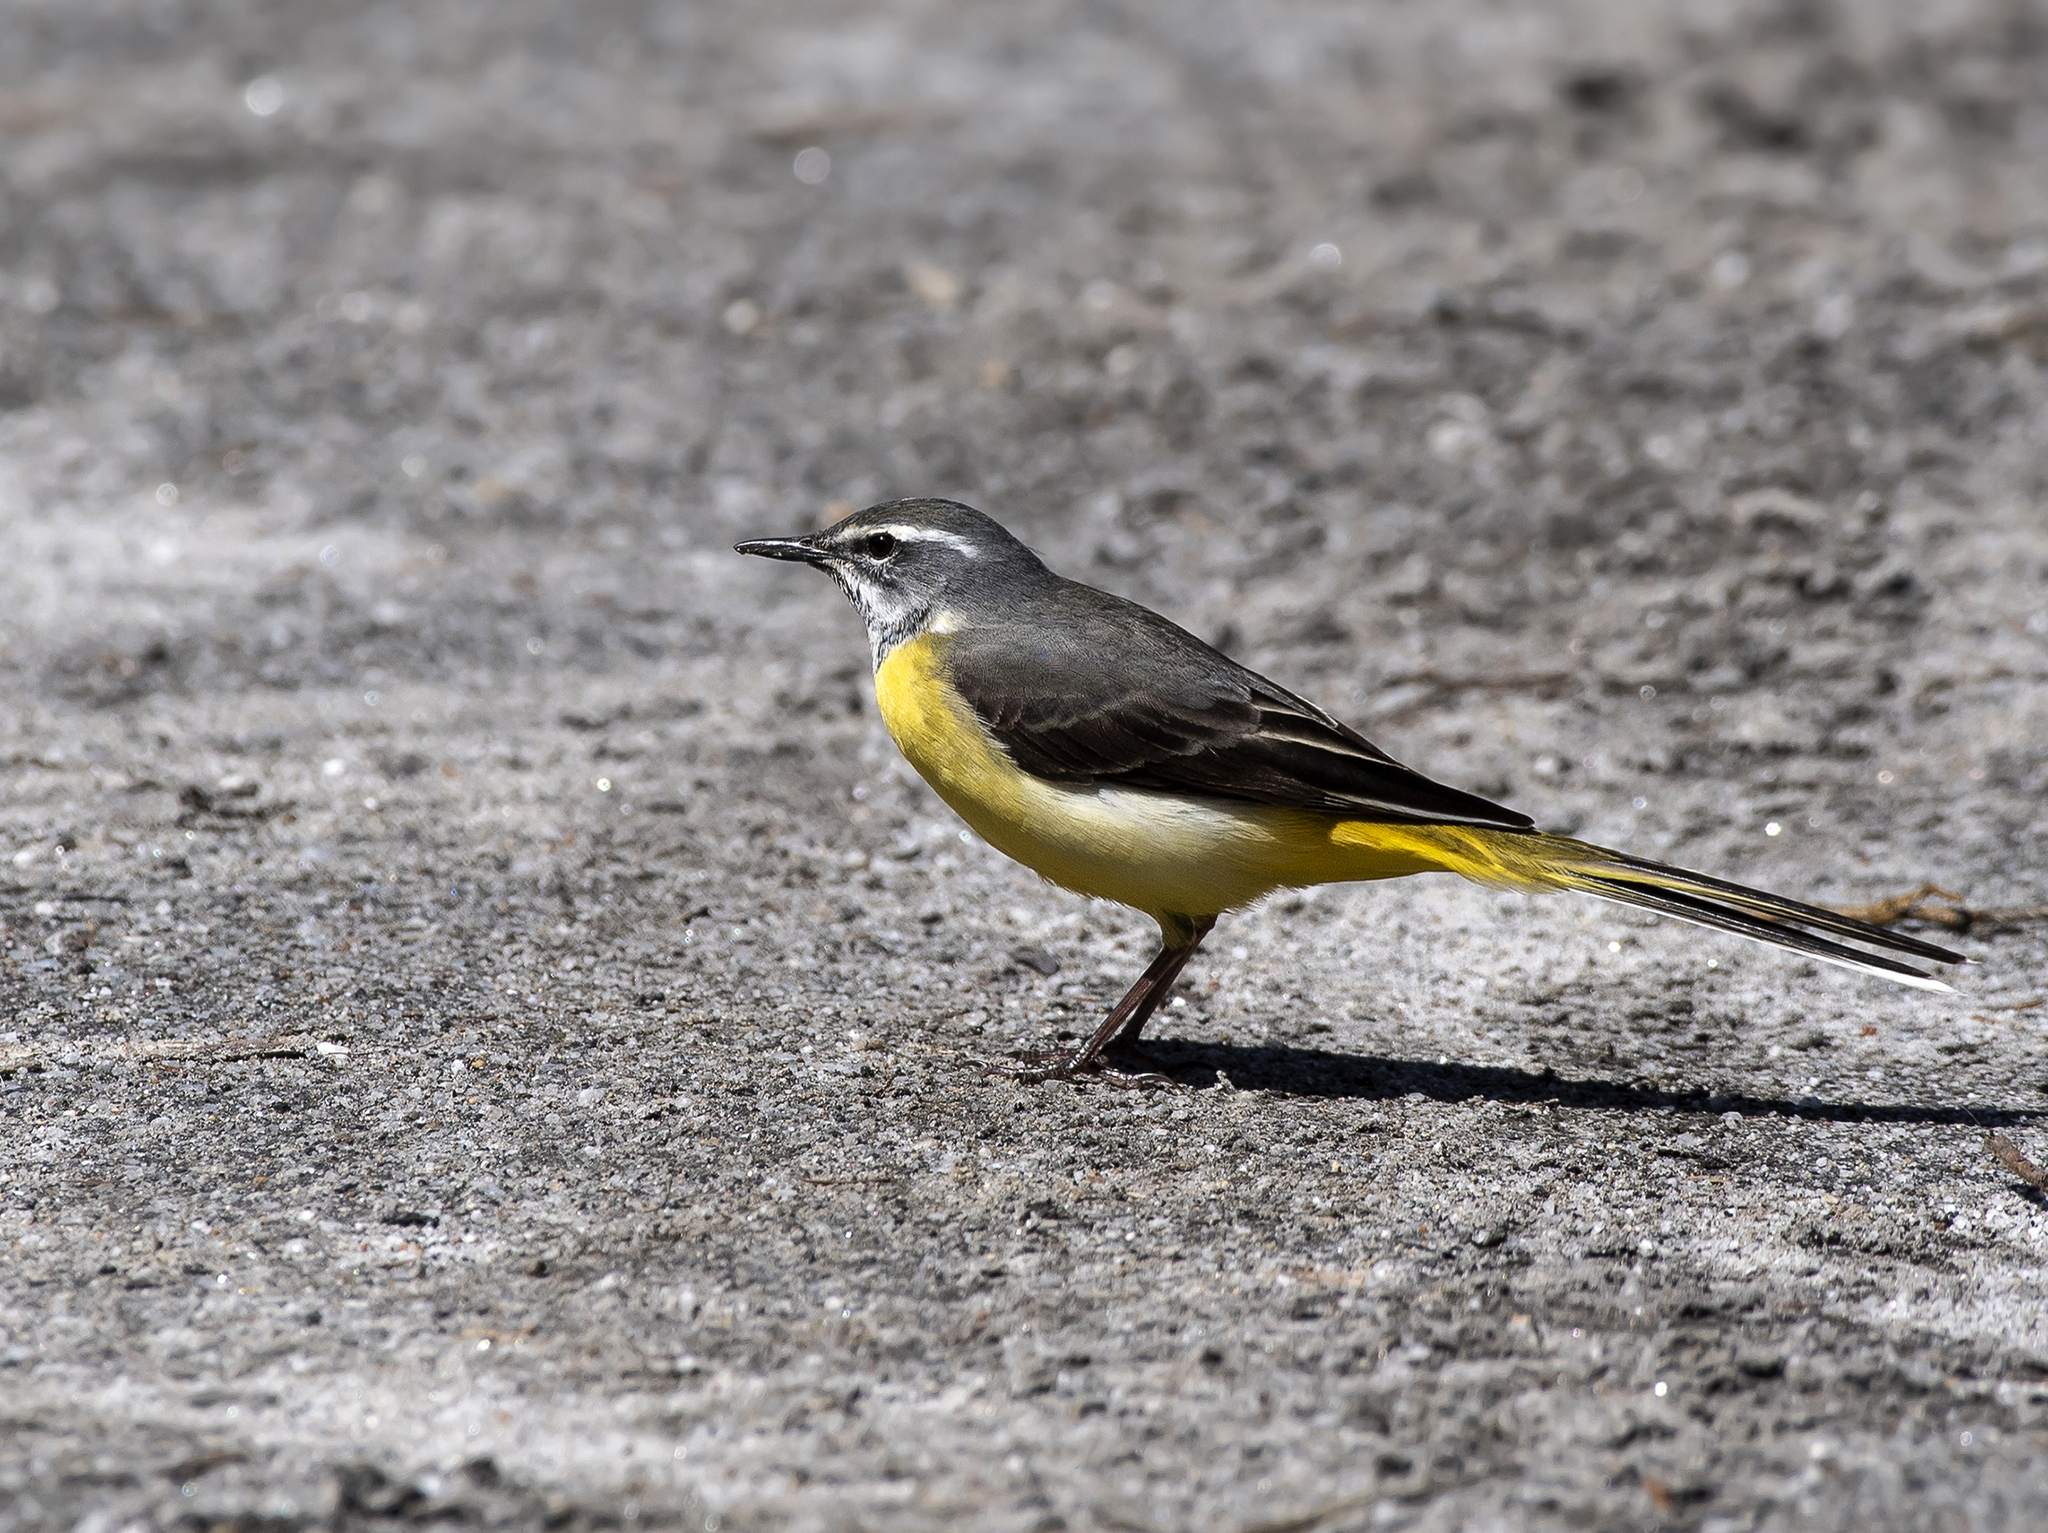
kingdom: Animalia
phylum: Chordata
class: Aves
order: Passeriformes
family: Motacillidae
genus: Motacilla
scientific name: Motacilla cinerea
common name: Grey wagtail
